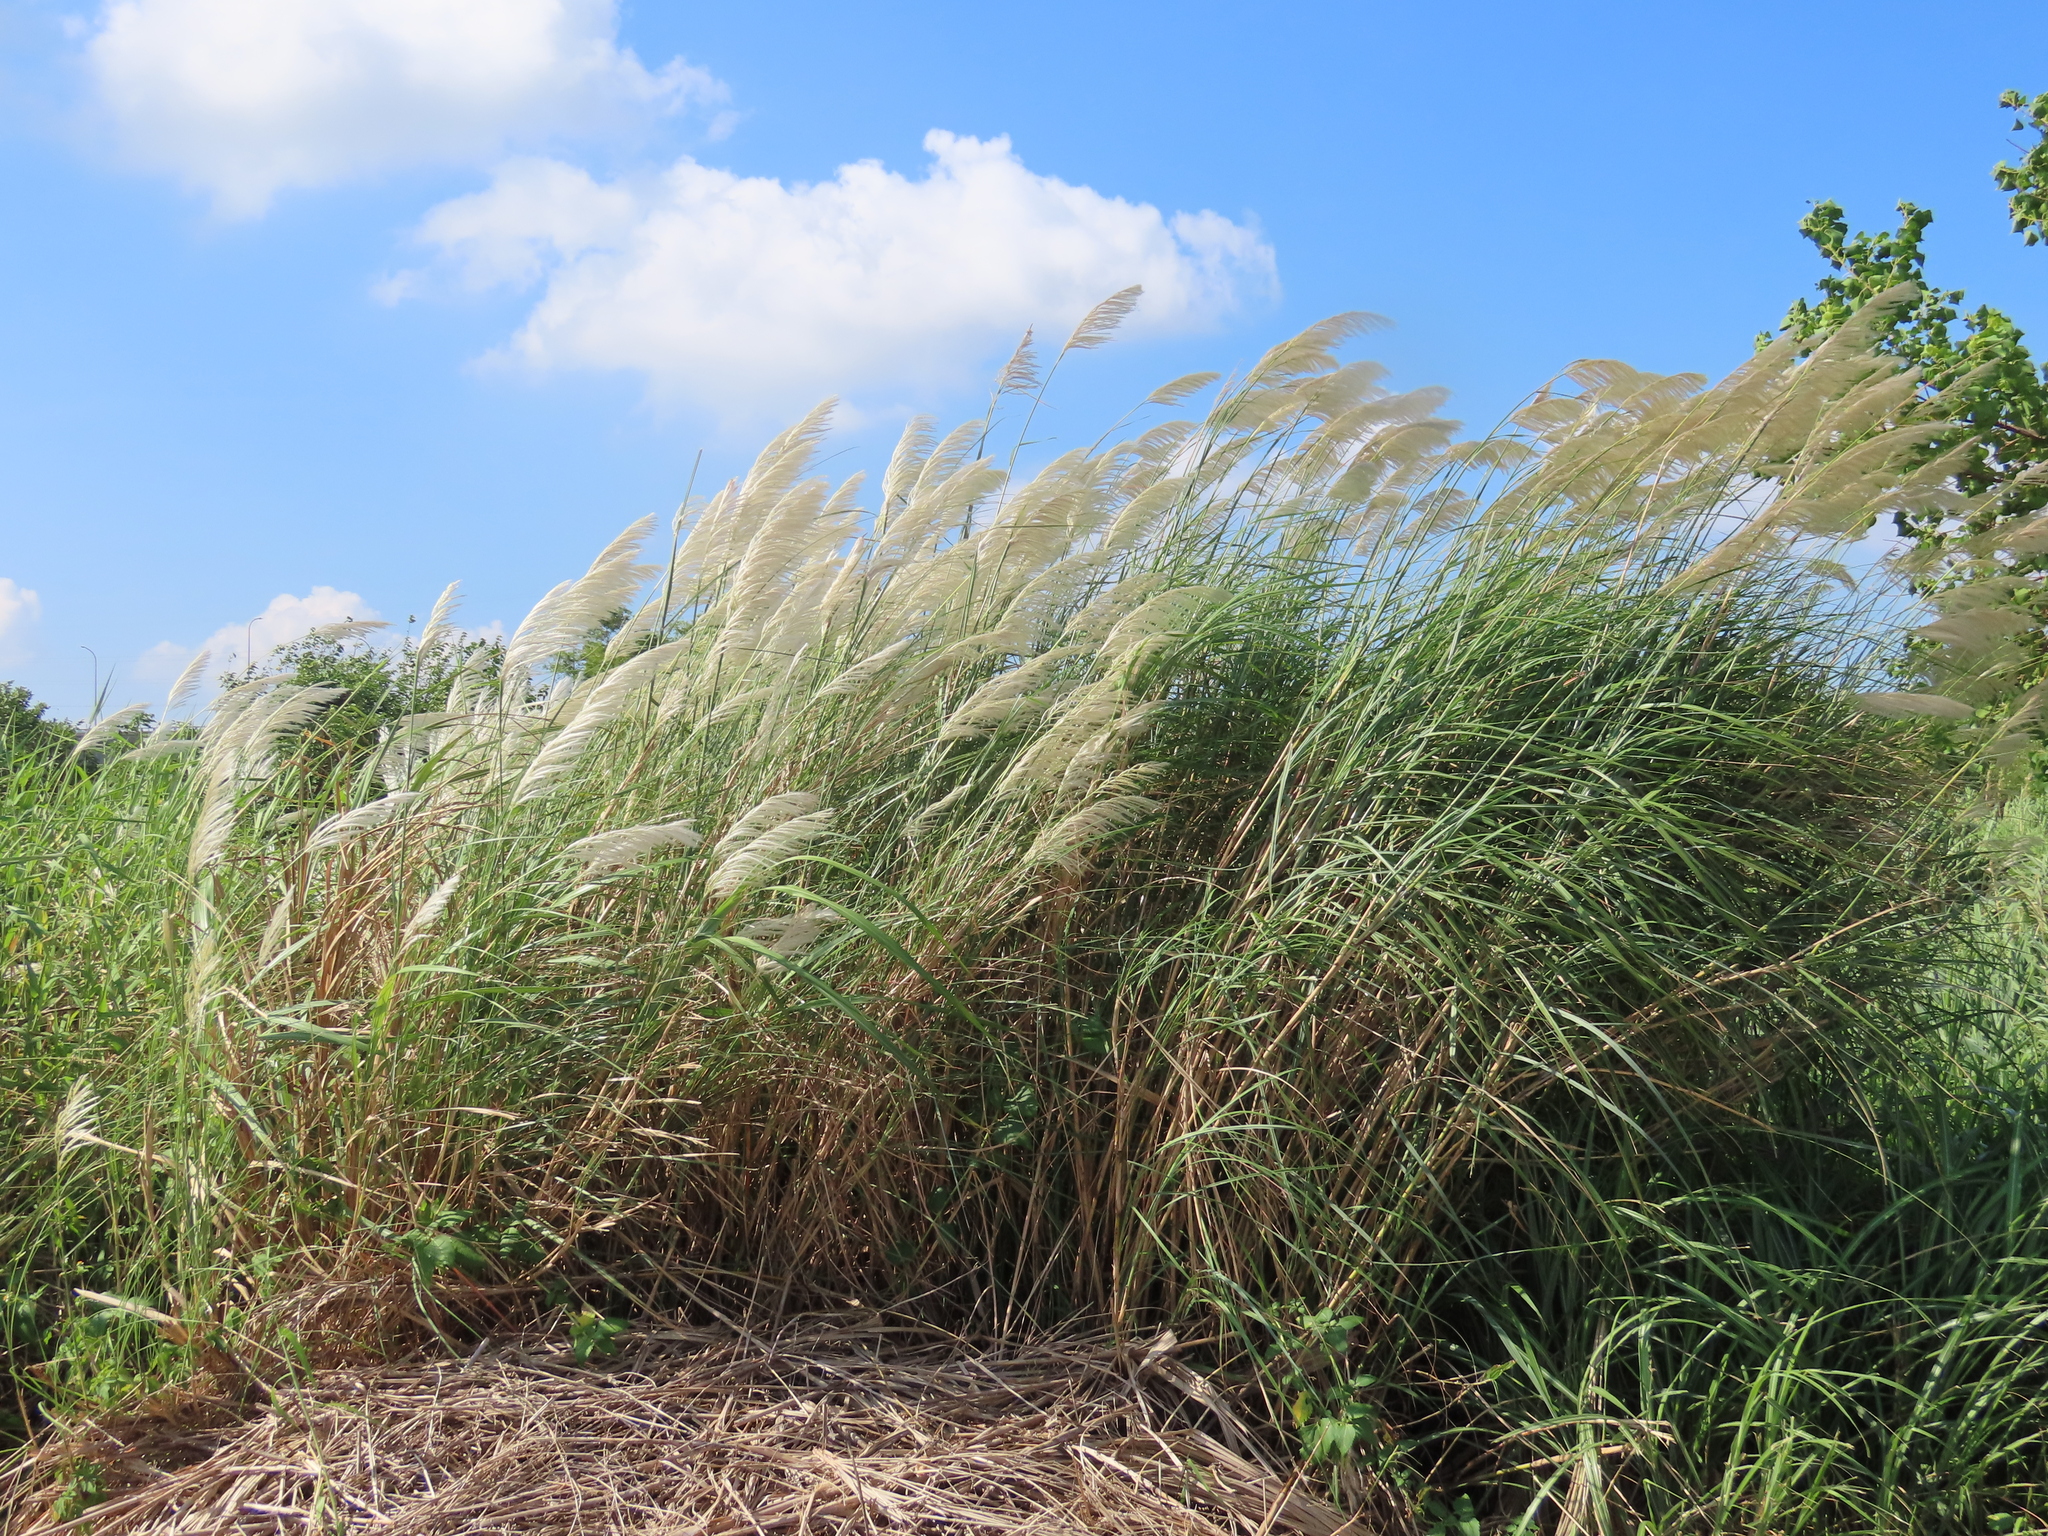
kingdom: Plantae
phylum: Tracheophyta
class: Liliopsida
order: Poales
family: Poaceae
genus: Saccharum
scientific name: Saccharum spontaneum
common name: Wild sugarcane
